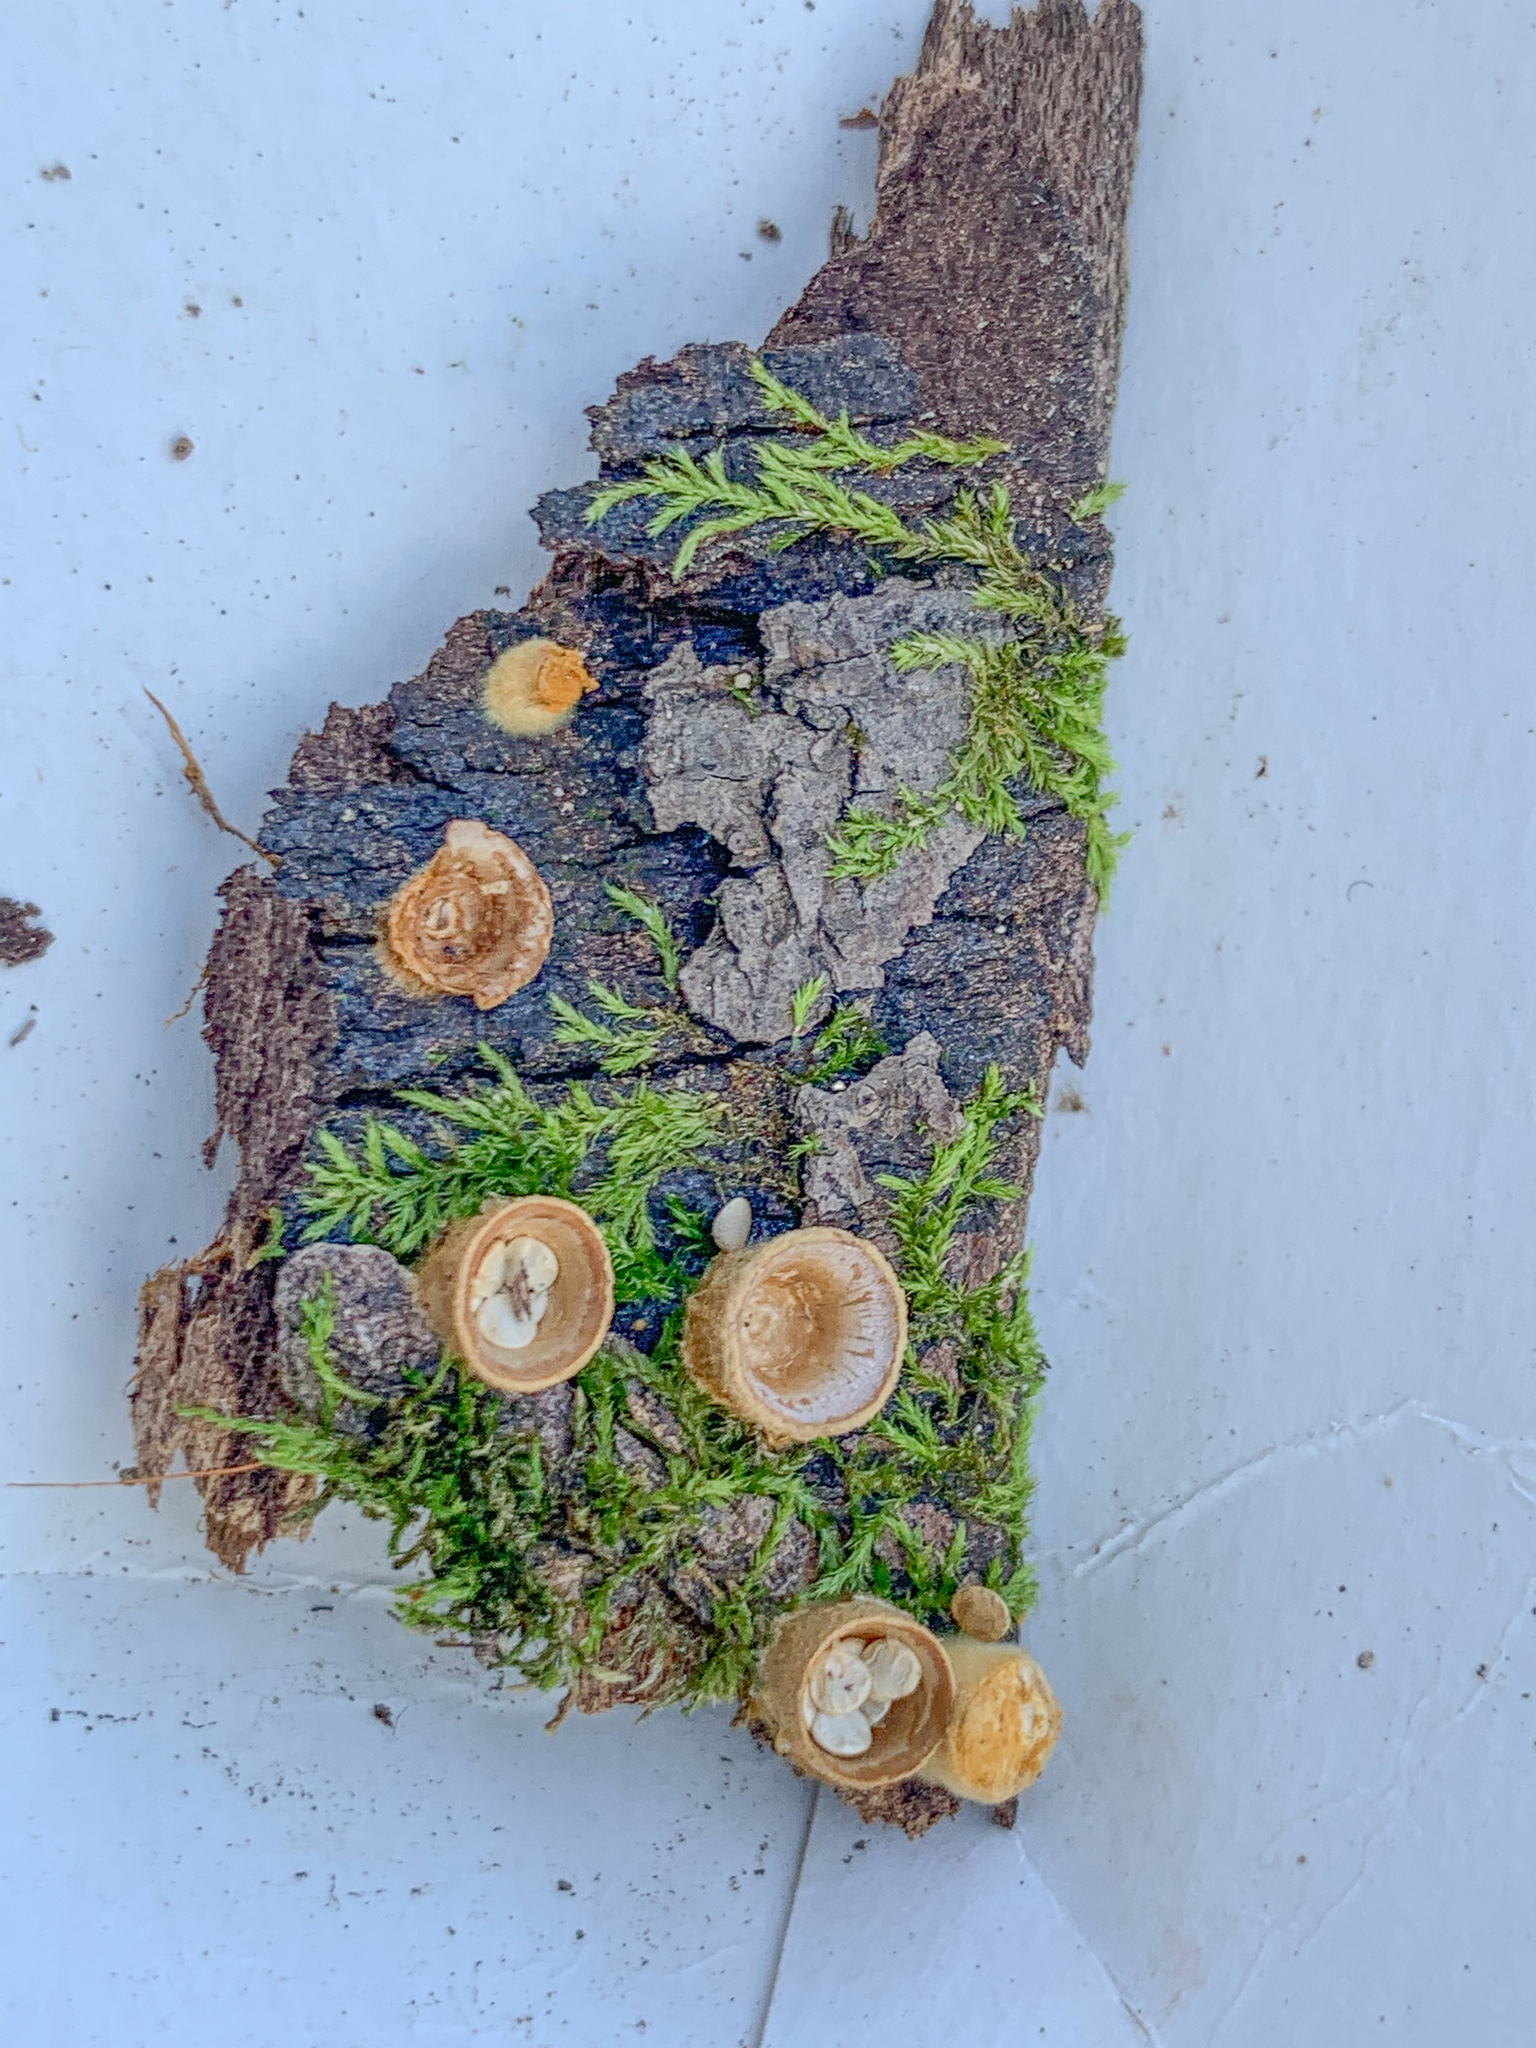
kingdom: Fungi
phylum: Basidiomycota
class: Agaricomycetes
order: Agaricales
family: Nidulariaceae
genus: Crucibulum
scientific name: Crucibulum laeve
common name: Common bird's nest
